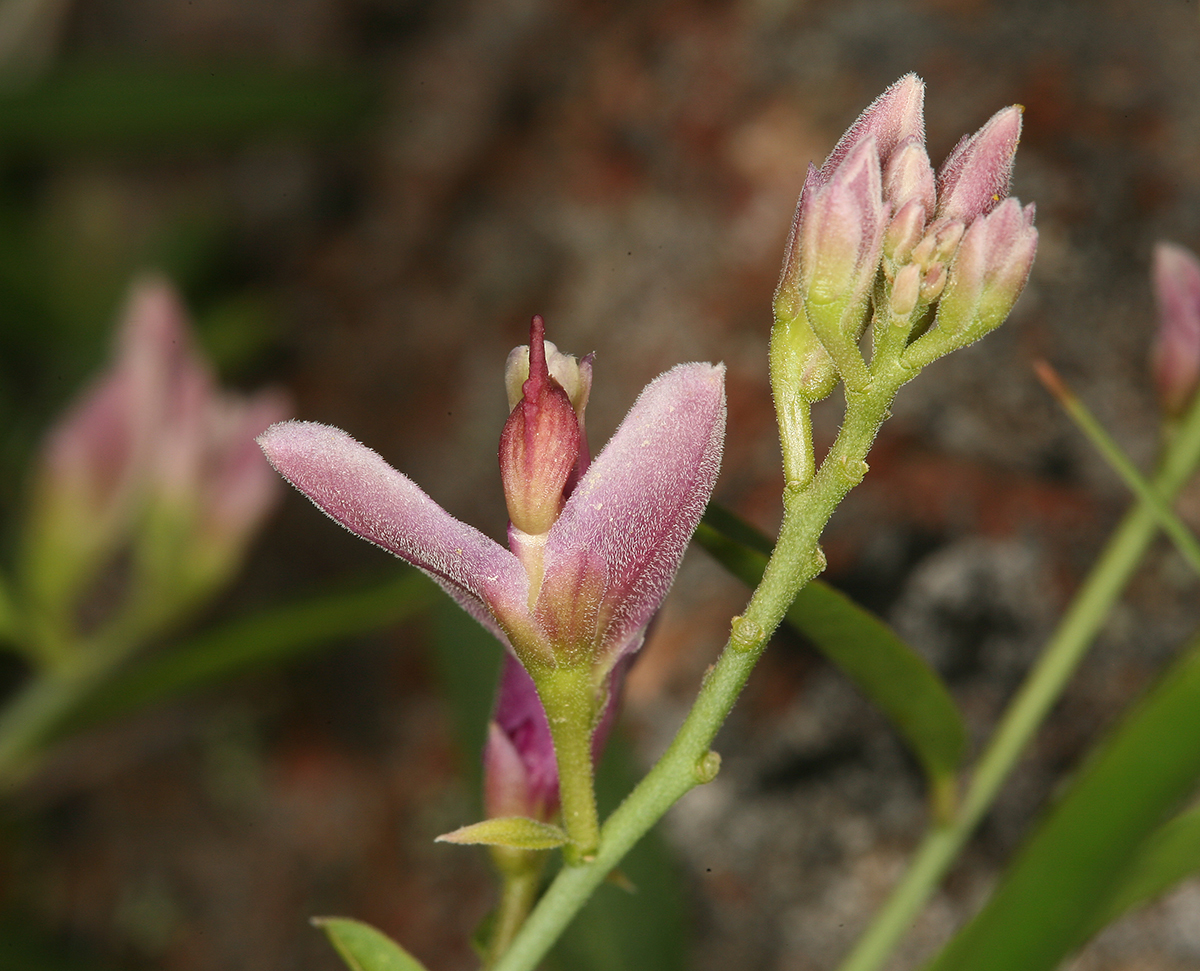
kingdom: Plantae
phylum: Tracheophyta
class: Magnoliopsida
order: Fabales
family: Polygalaceae
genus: Rhinotropis
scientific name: Rhinotropis cornuta
